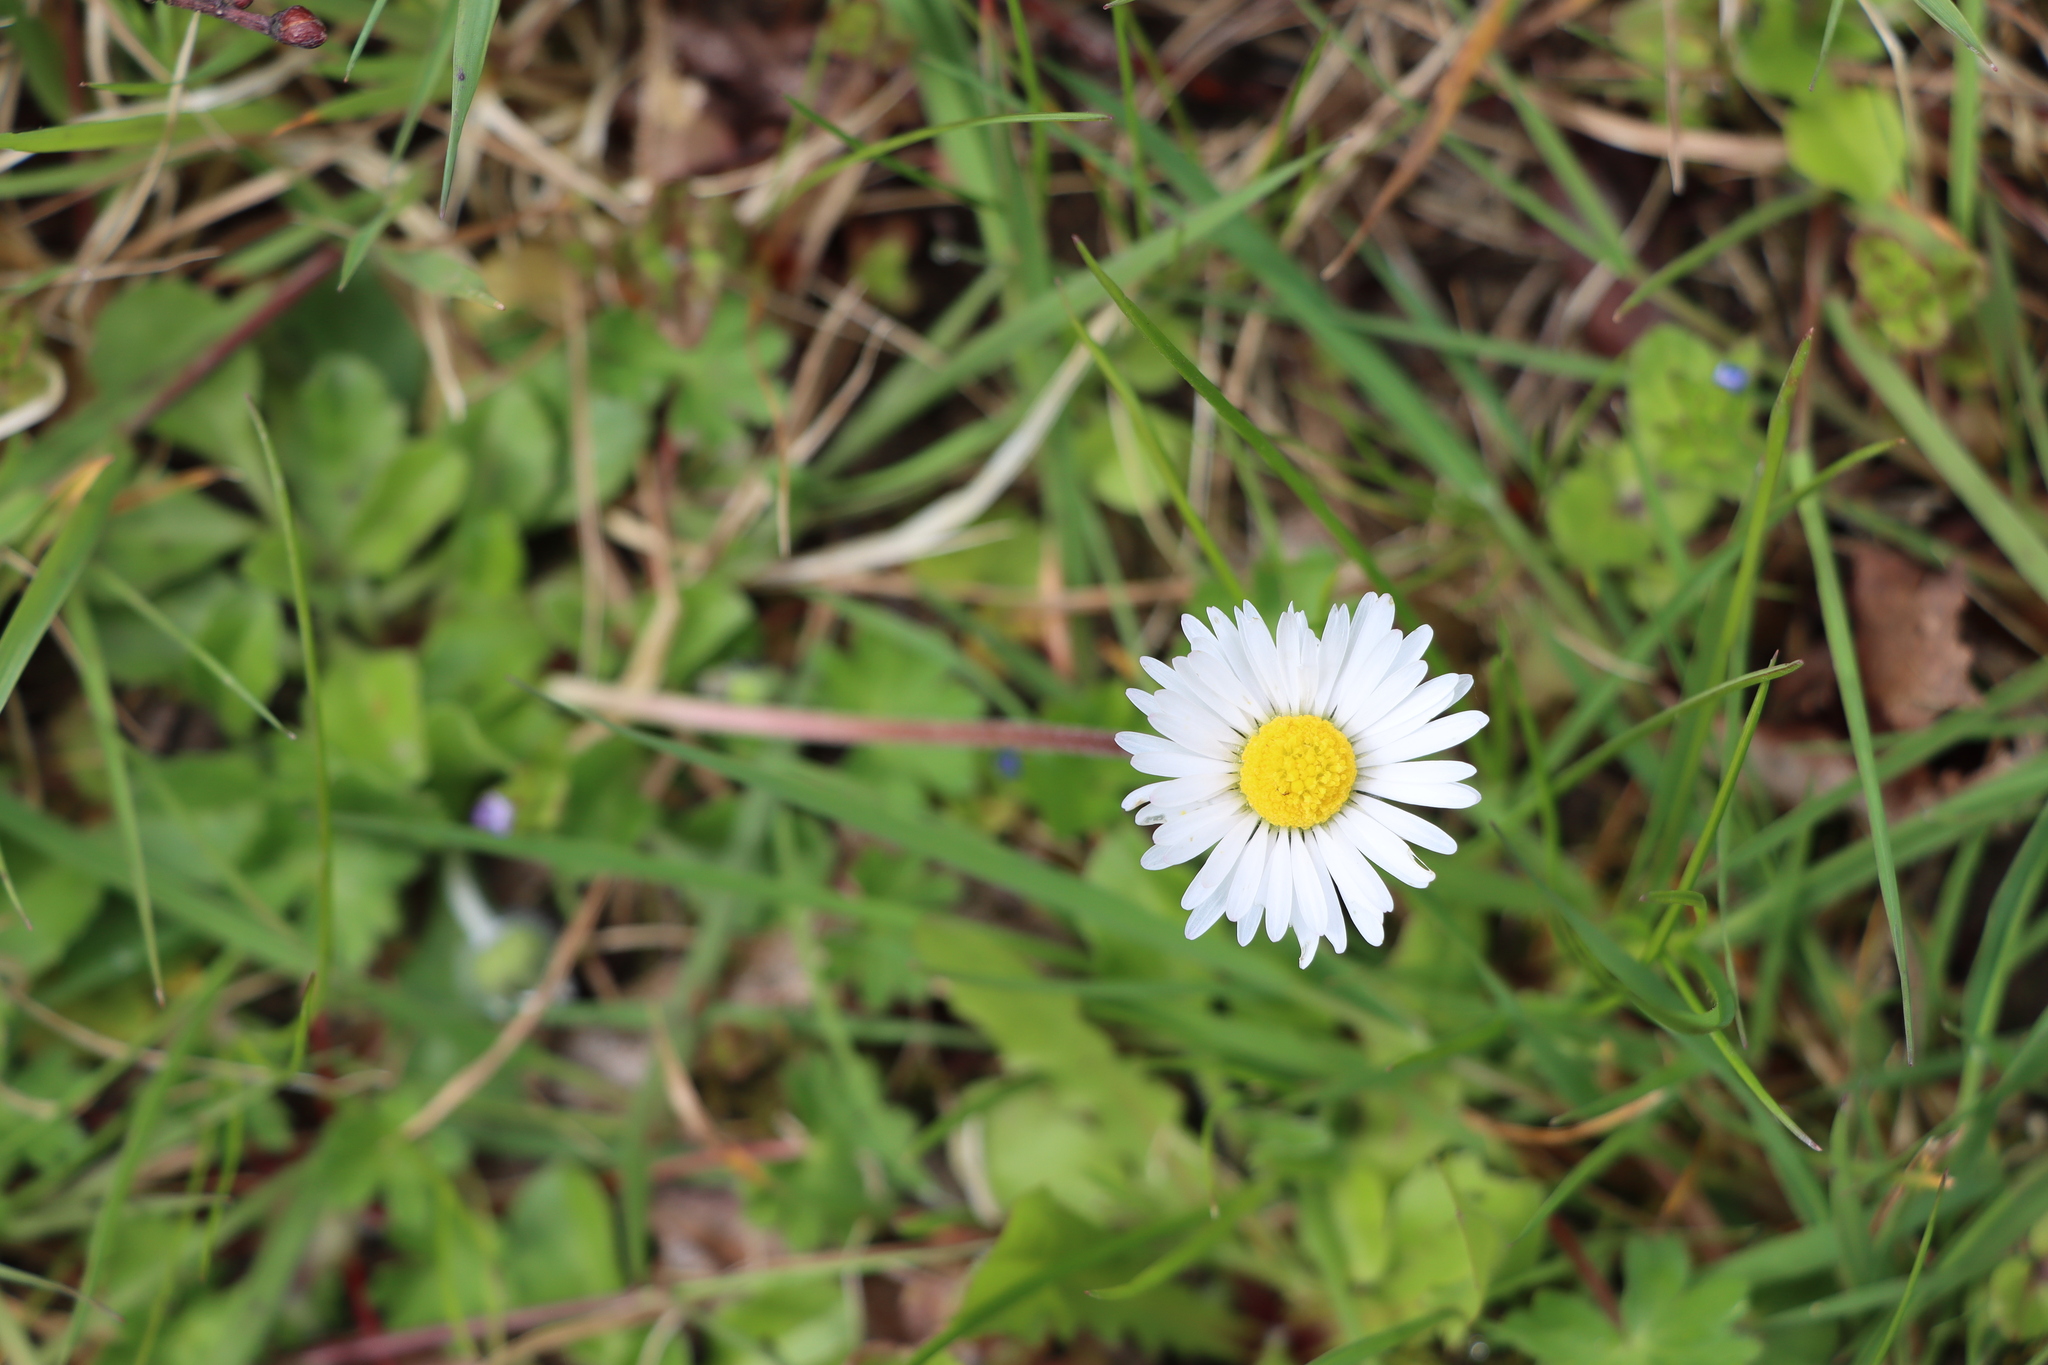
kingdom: Plantae
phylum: Tracheophyta
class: Magnoliopsida
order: Asterales
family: Asteraceae
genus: Bellis
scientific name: Bellis perennis
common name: Lawndaisy
